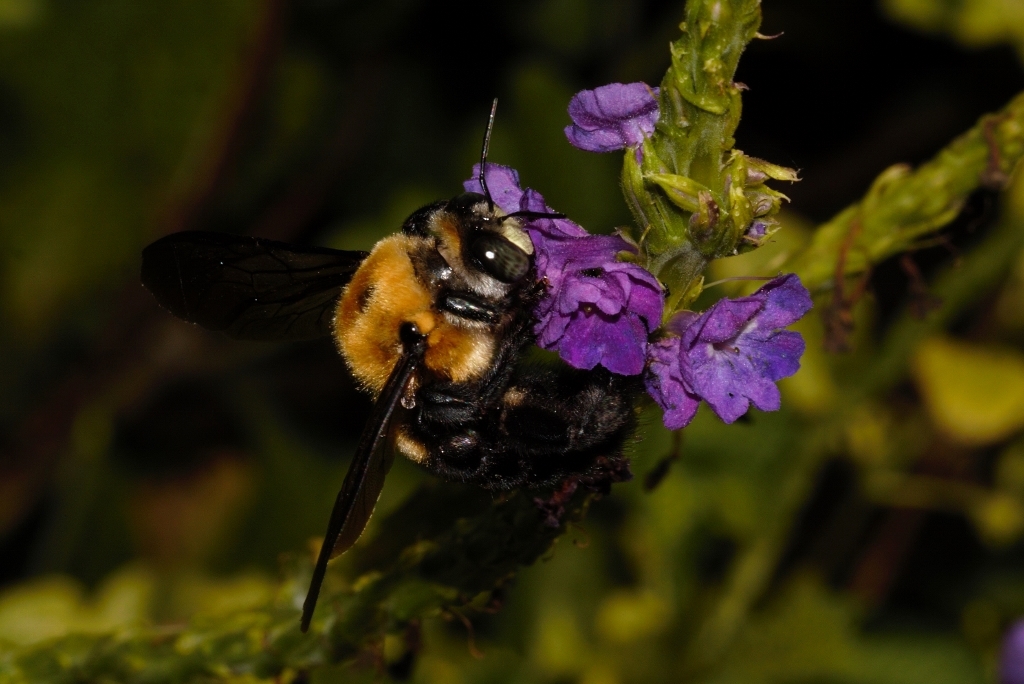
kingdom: Animalia
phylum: Arthropoda
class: Insecta
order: Hymenoptera
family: Apidae
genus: Xylocopa
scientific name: Xylocopa erythrina
